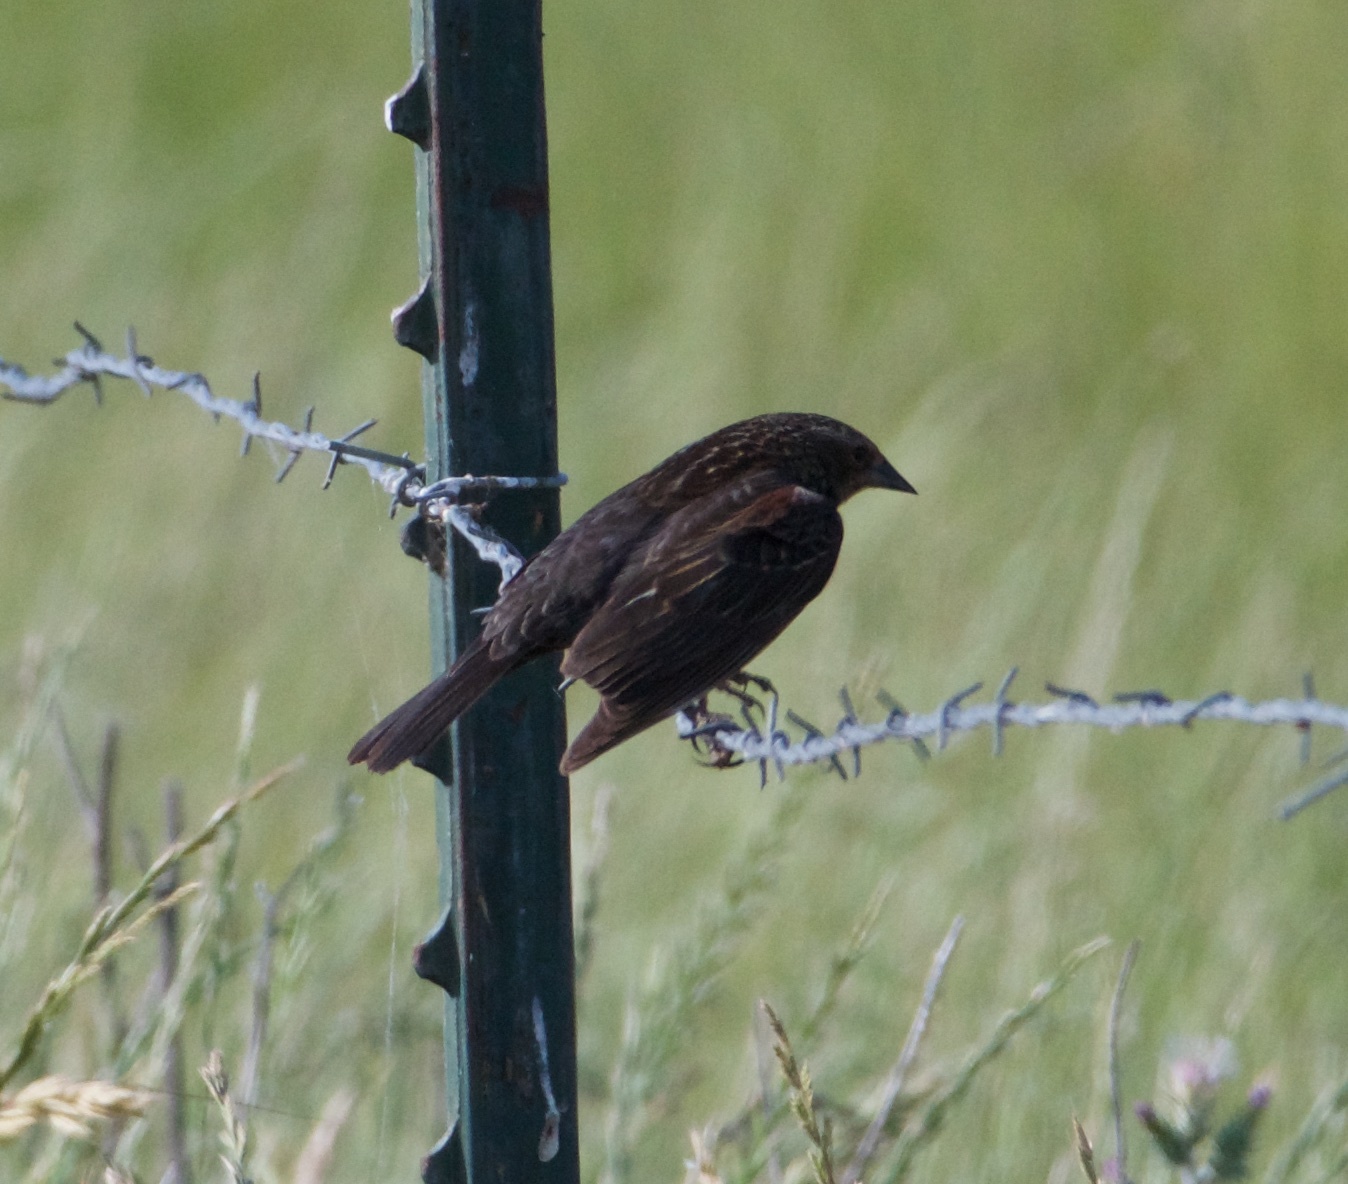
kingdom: Animalia
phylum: Chordata
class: Aves
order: Passeriformes
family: Icteridae
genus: Agelaius
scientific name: Agelaius phoeniceus
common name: Red-winged blackbird
